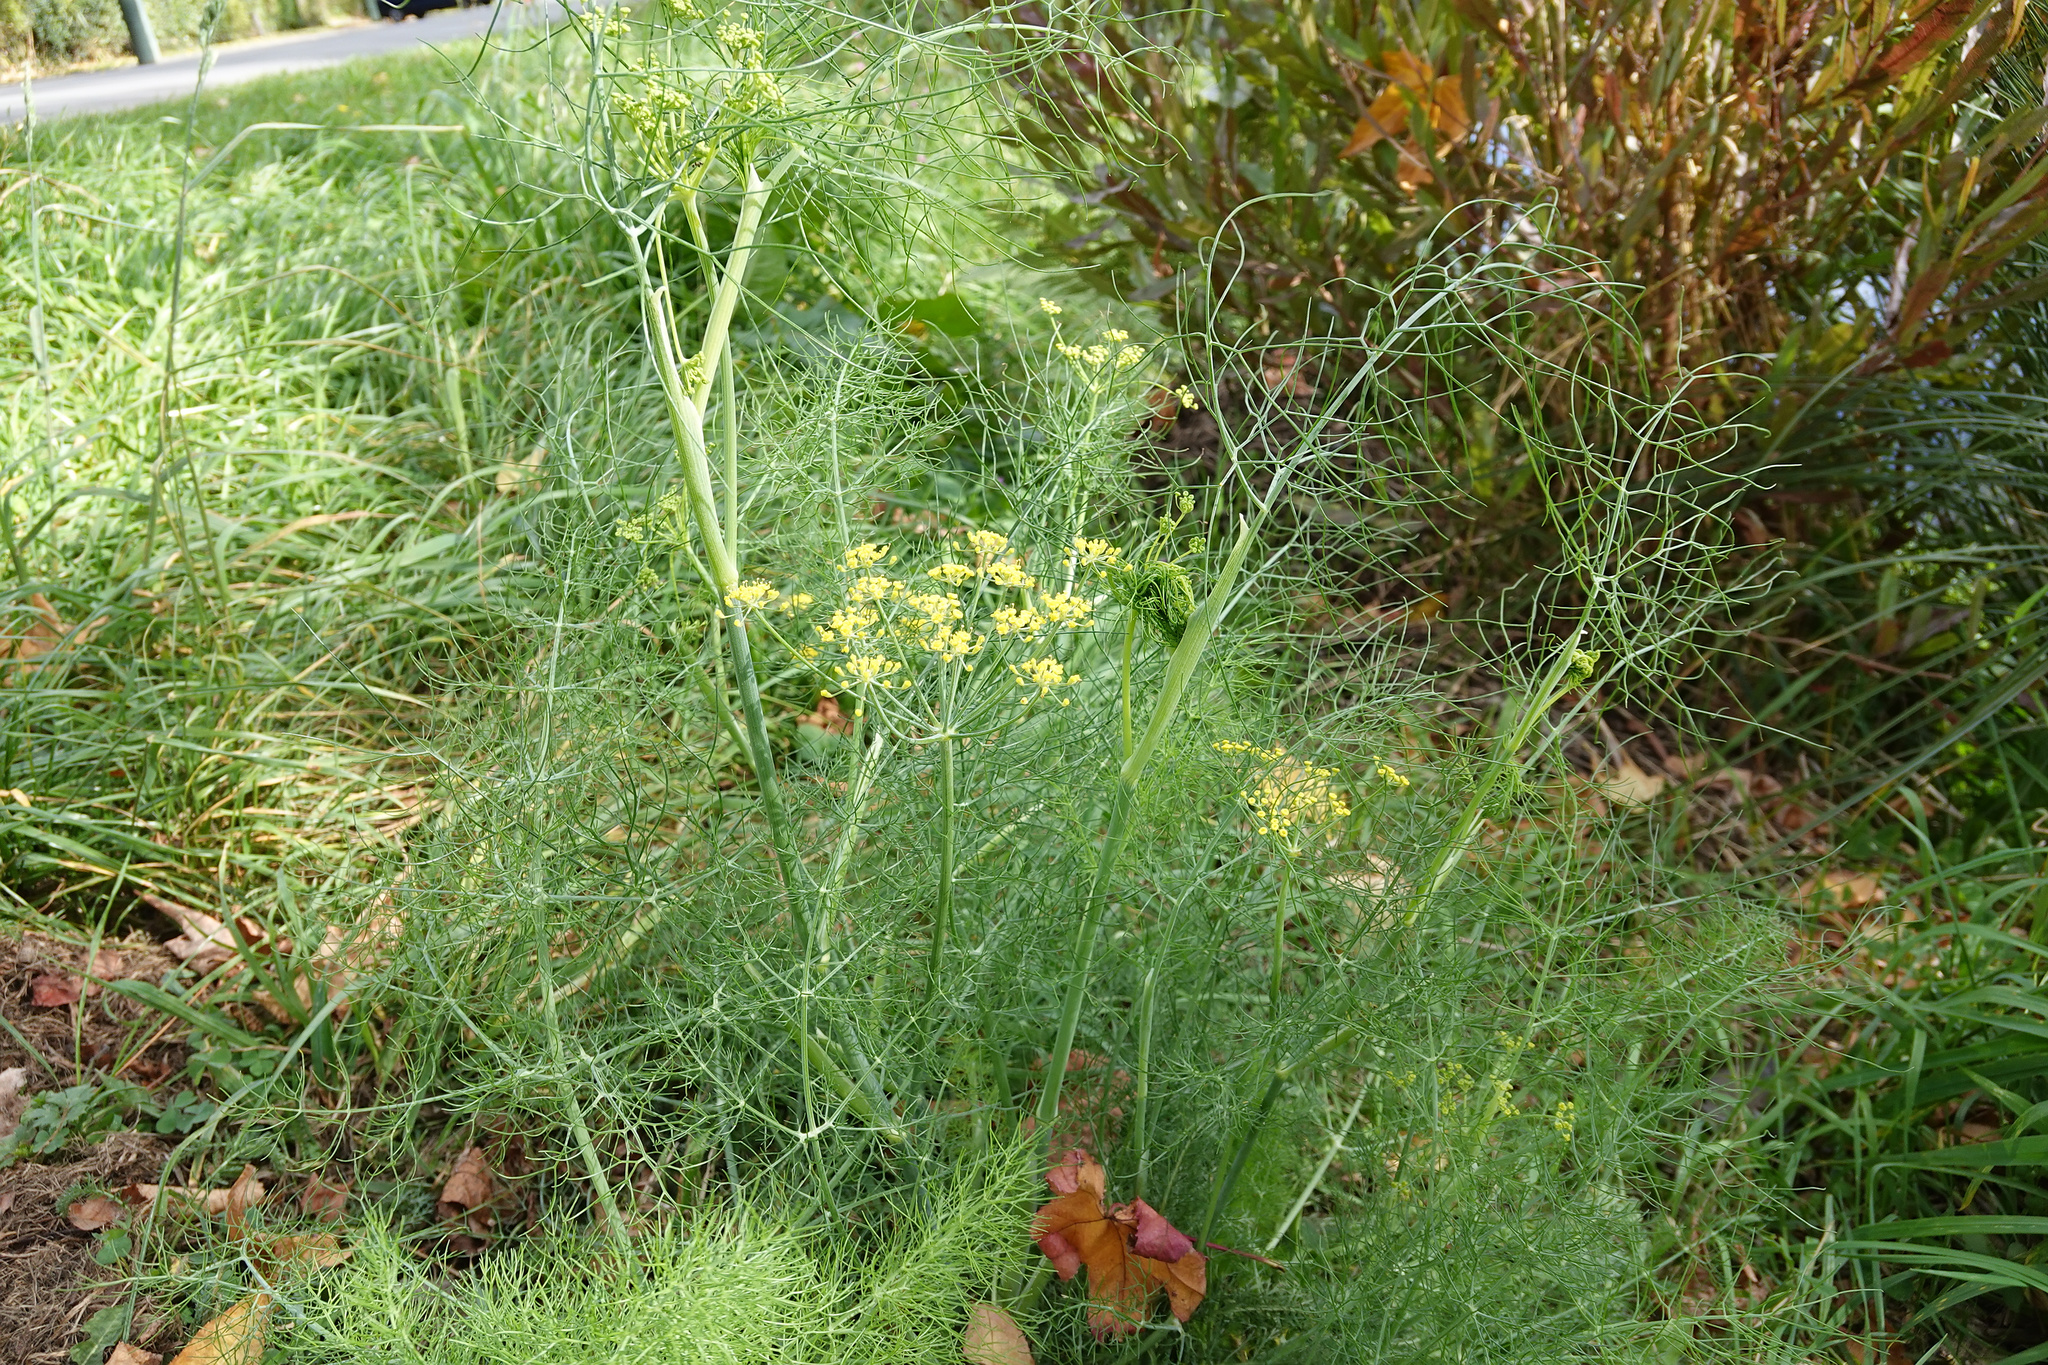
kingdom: Plantae
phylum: Tracheophyta
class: Magnoliopsida
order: Apiales
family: Apiaceae
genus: Foeniculum
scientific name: Foeniculum vulgare
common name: Fennel
